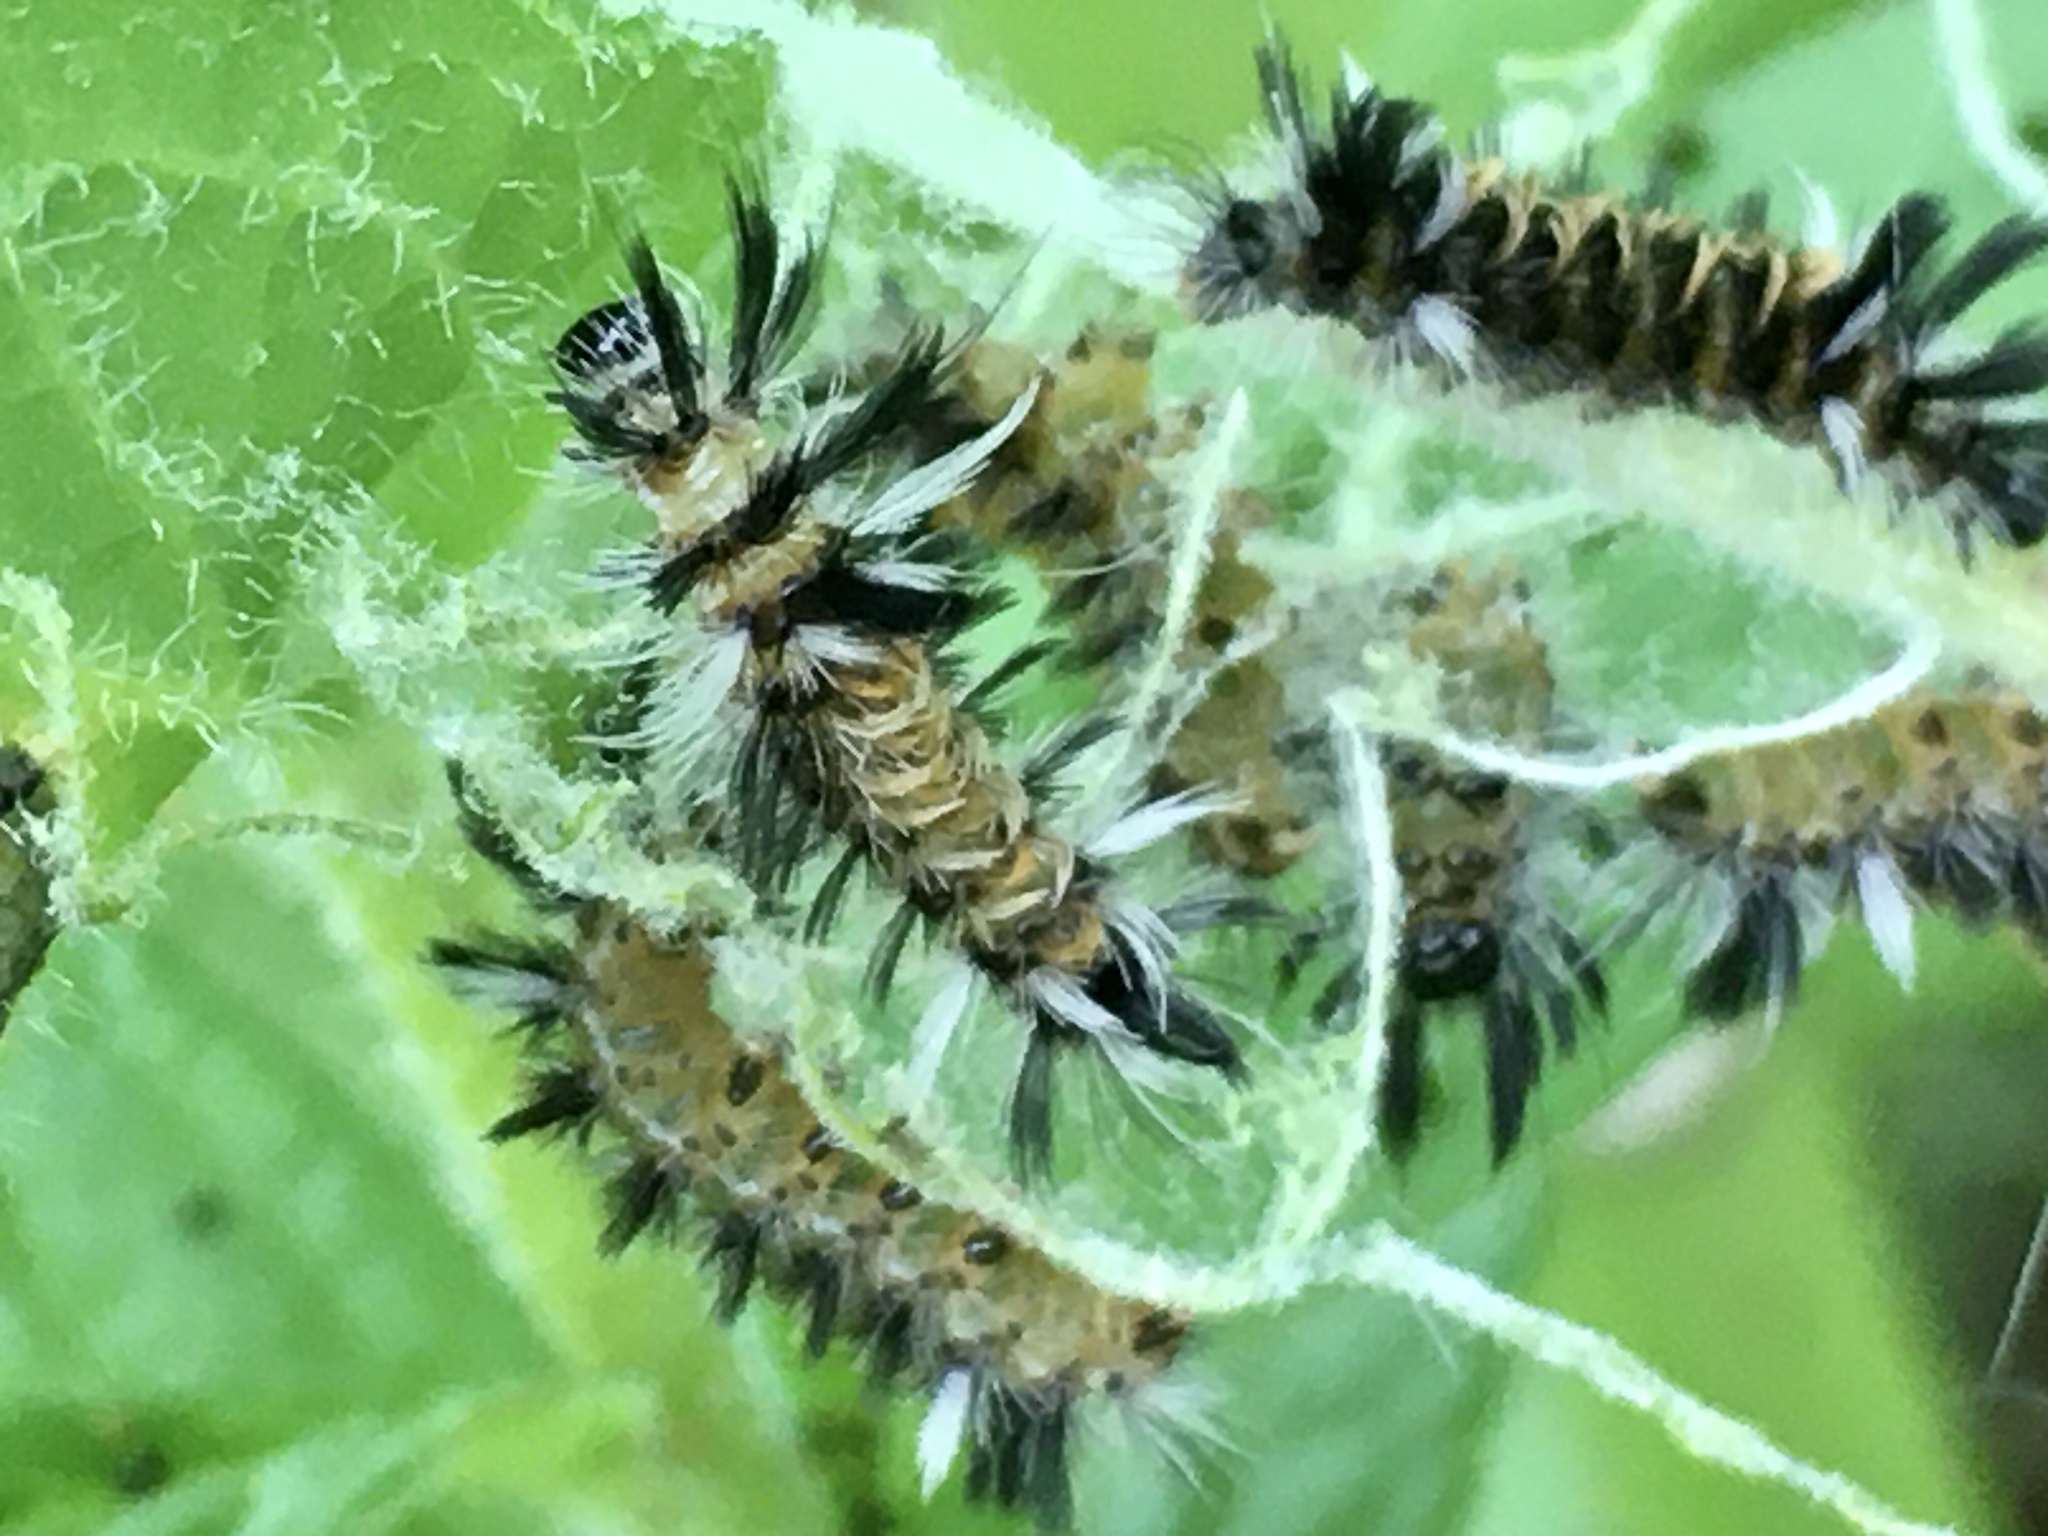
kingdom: Animalia
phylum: Arthropoda
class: Insecta
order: Lepidoptera
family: Erebidae
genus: Euchaetes
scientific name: Euchaetes egle
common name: Milkweed tussock moth
